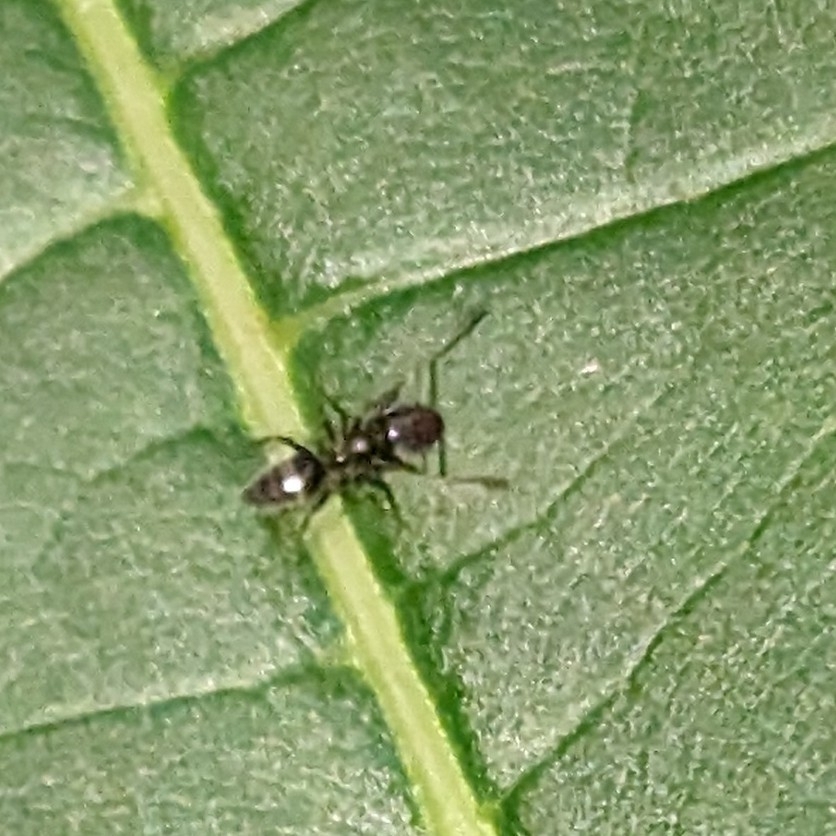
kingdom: Animalia
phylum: Arthropoda
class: Insecta
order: Hymenoptera
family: Formicidae
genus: Tapinoma
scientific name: Tapinoma sessile
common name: Odorous house ant
